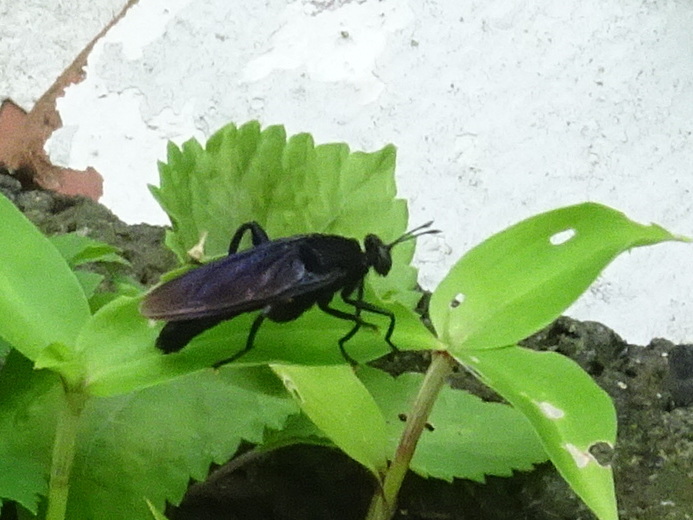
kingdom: Animalia
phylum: Arthropoda
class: Insecta
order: Diptera
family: Mydidae
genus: Mydas
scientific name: Mydas clavatus
